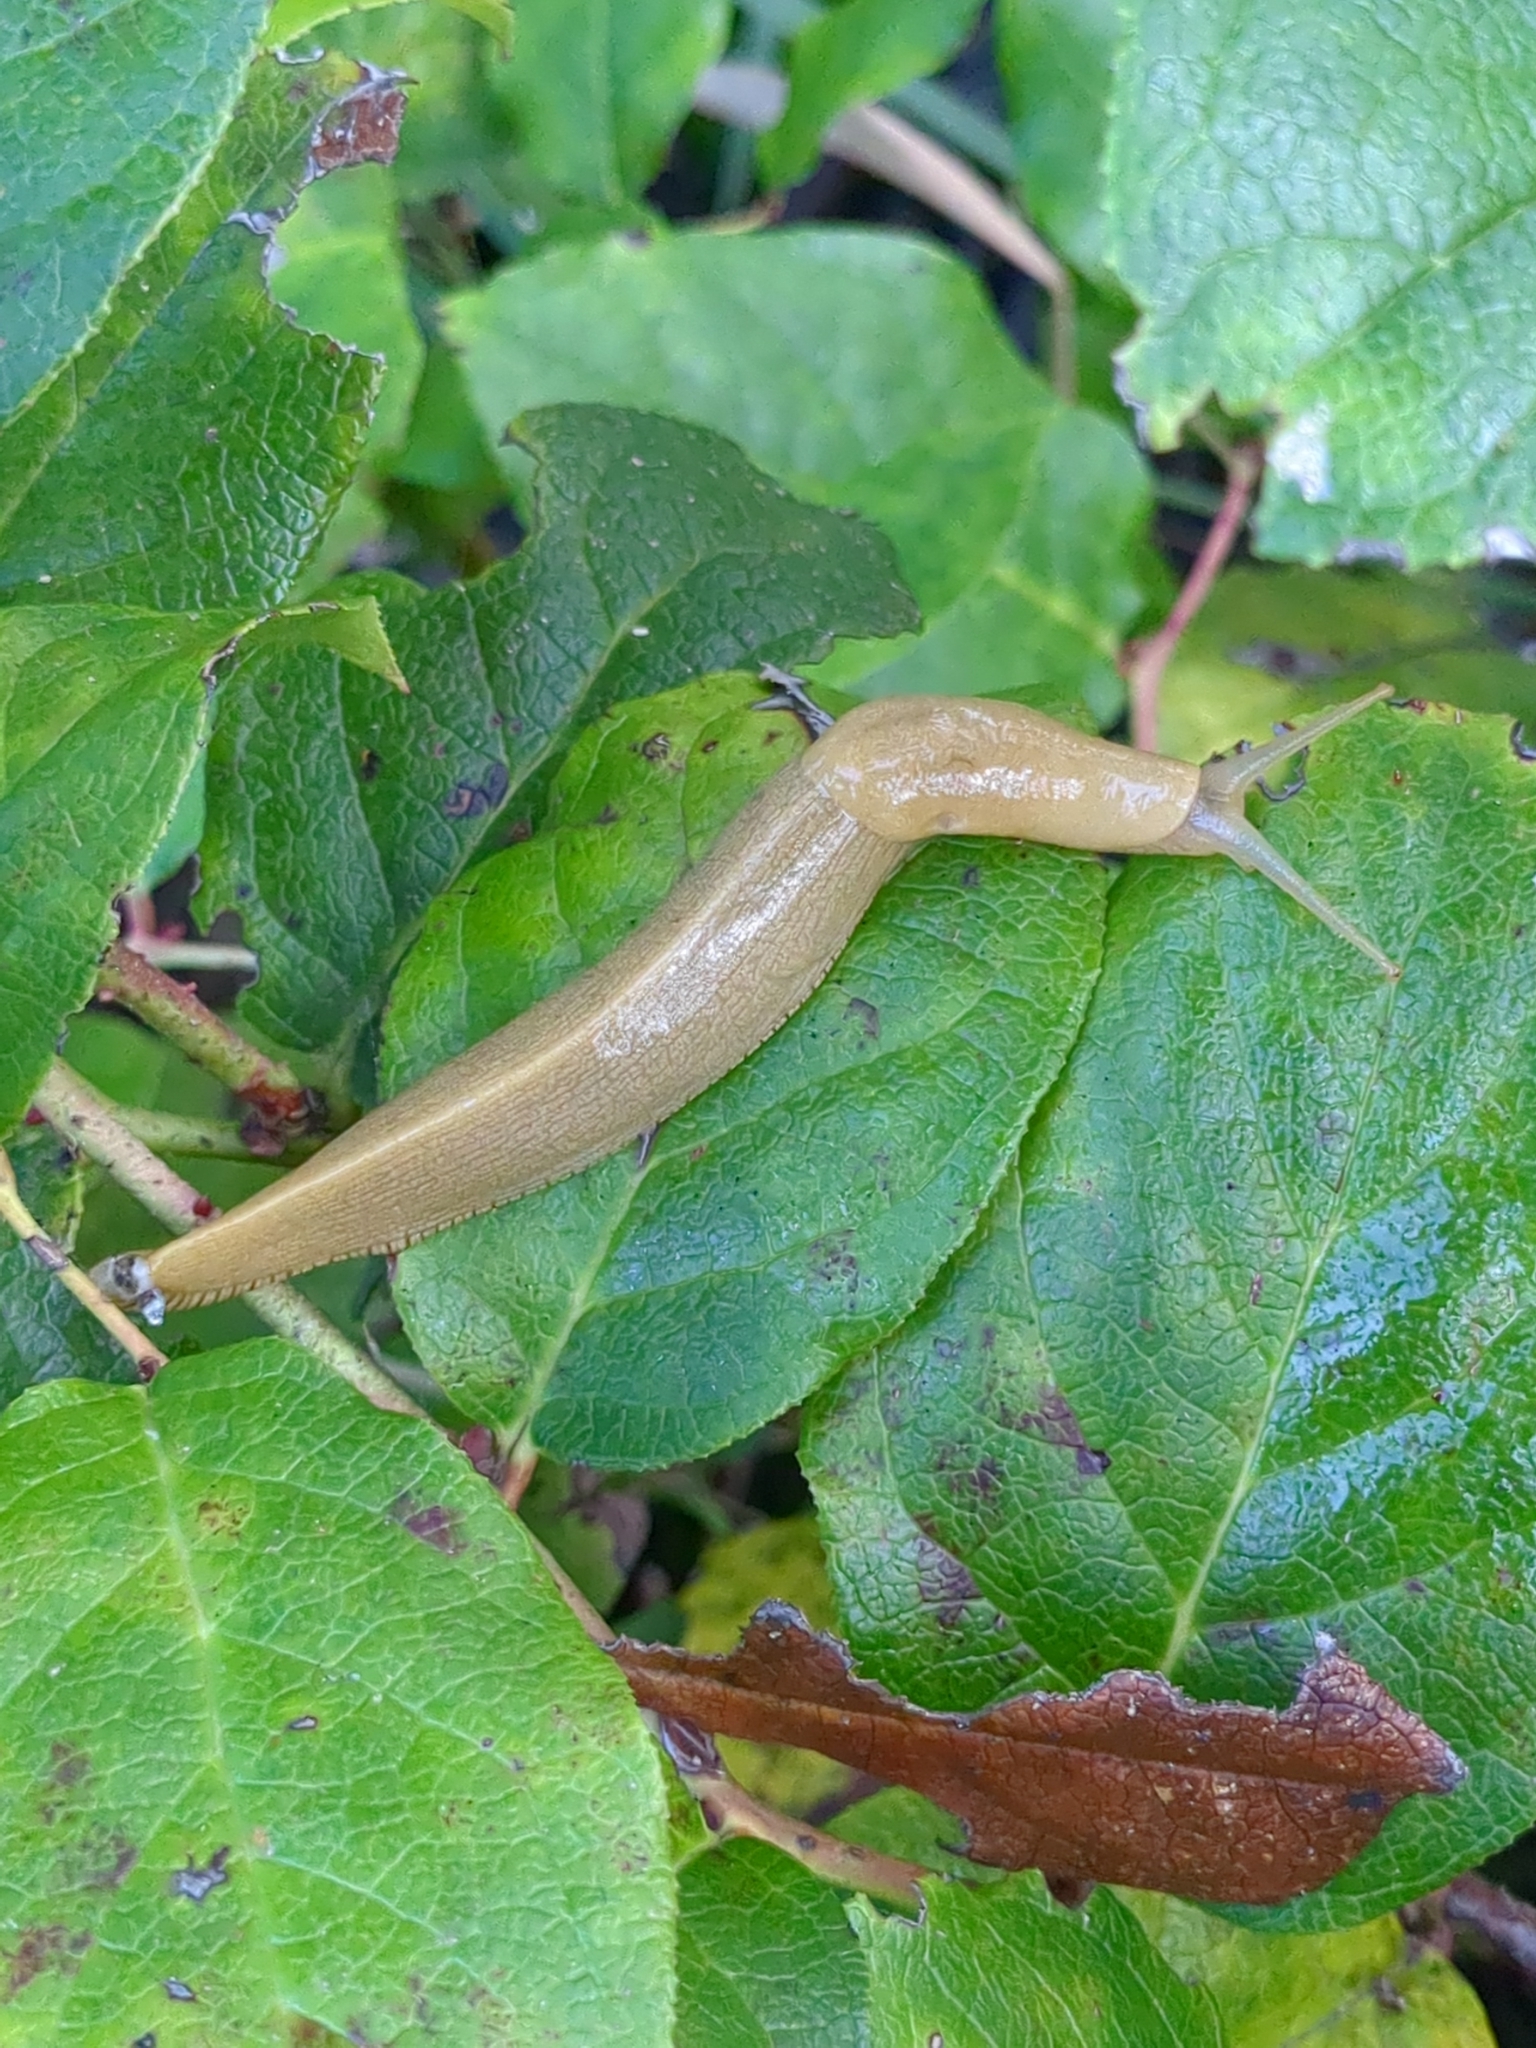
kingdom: Animalia
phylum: Mollusca
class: Gastropoda
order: Stylommatophora
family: Ariolimacidae
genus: Ariolimax
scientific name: Ariolimax columbianus
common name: Pacific banana slug
